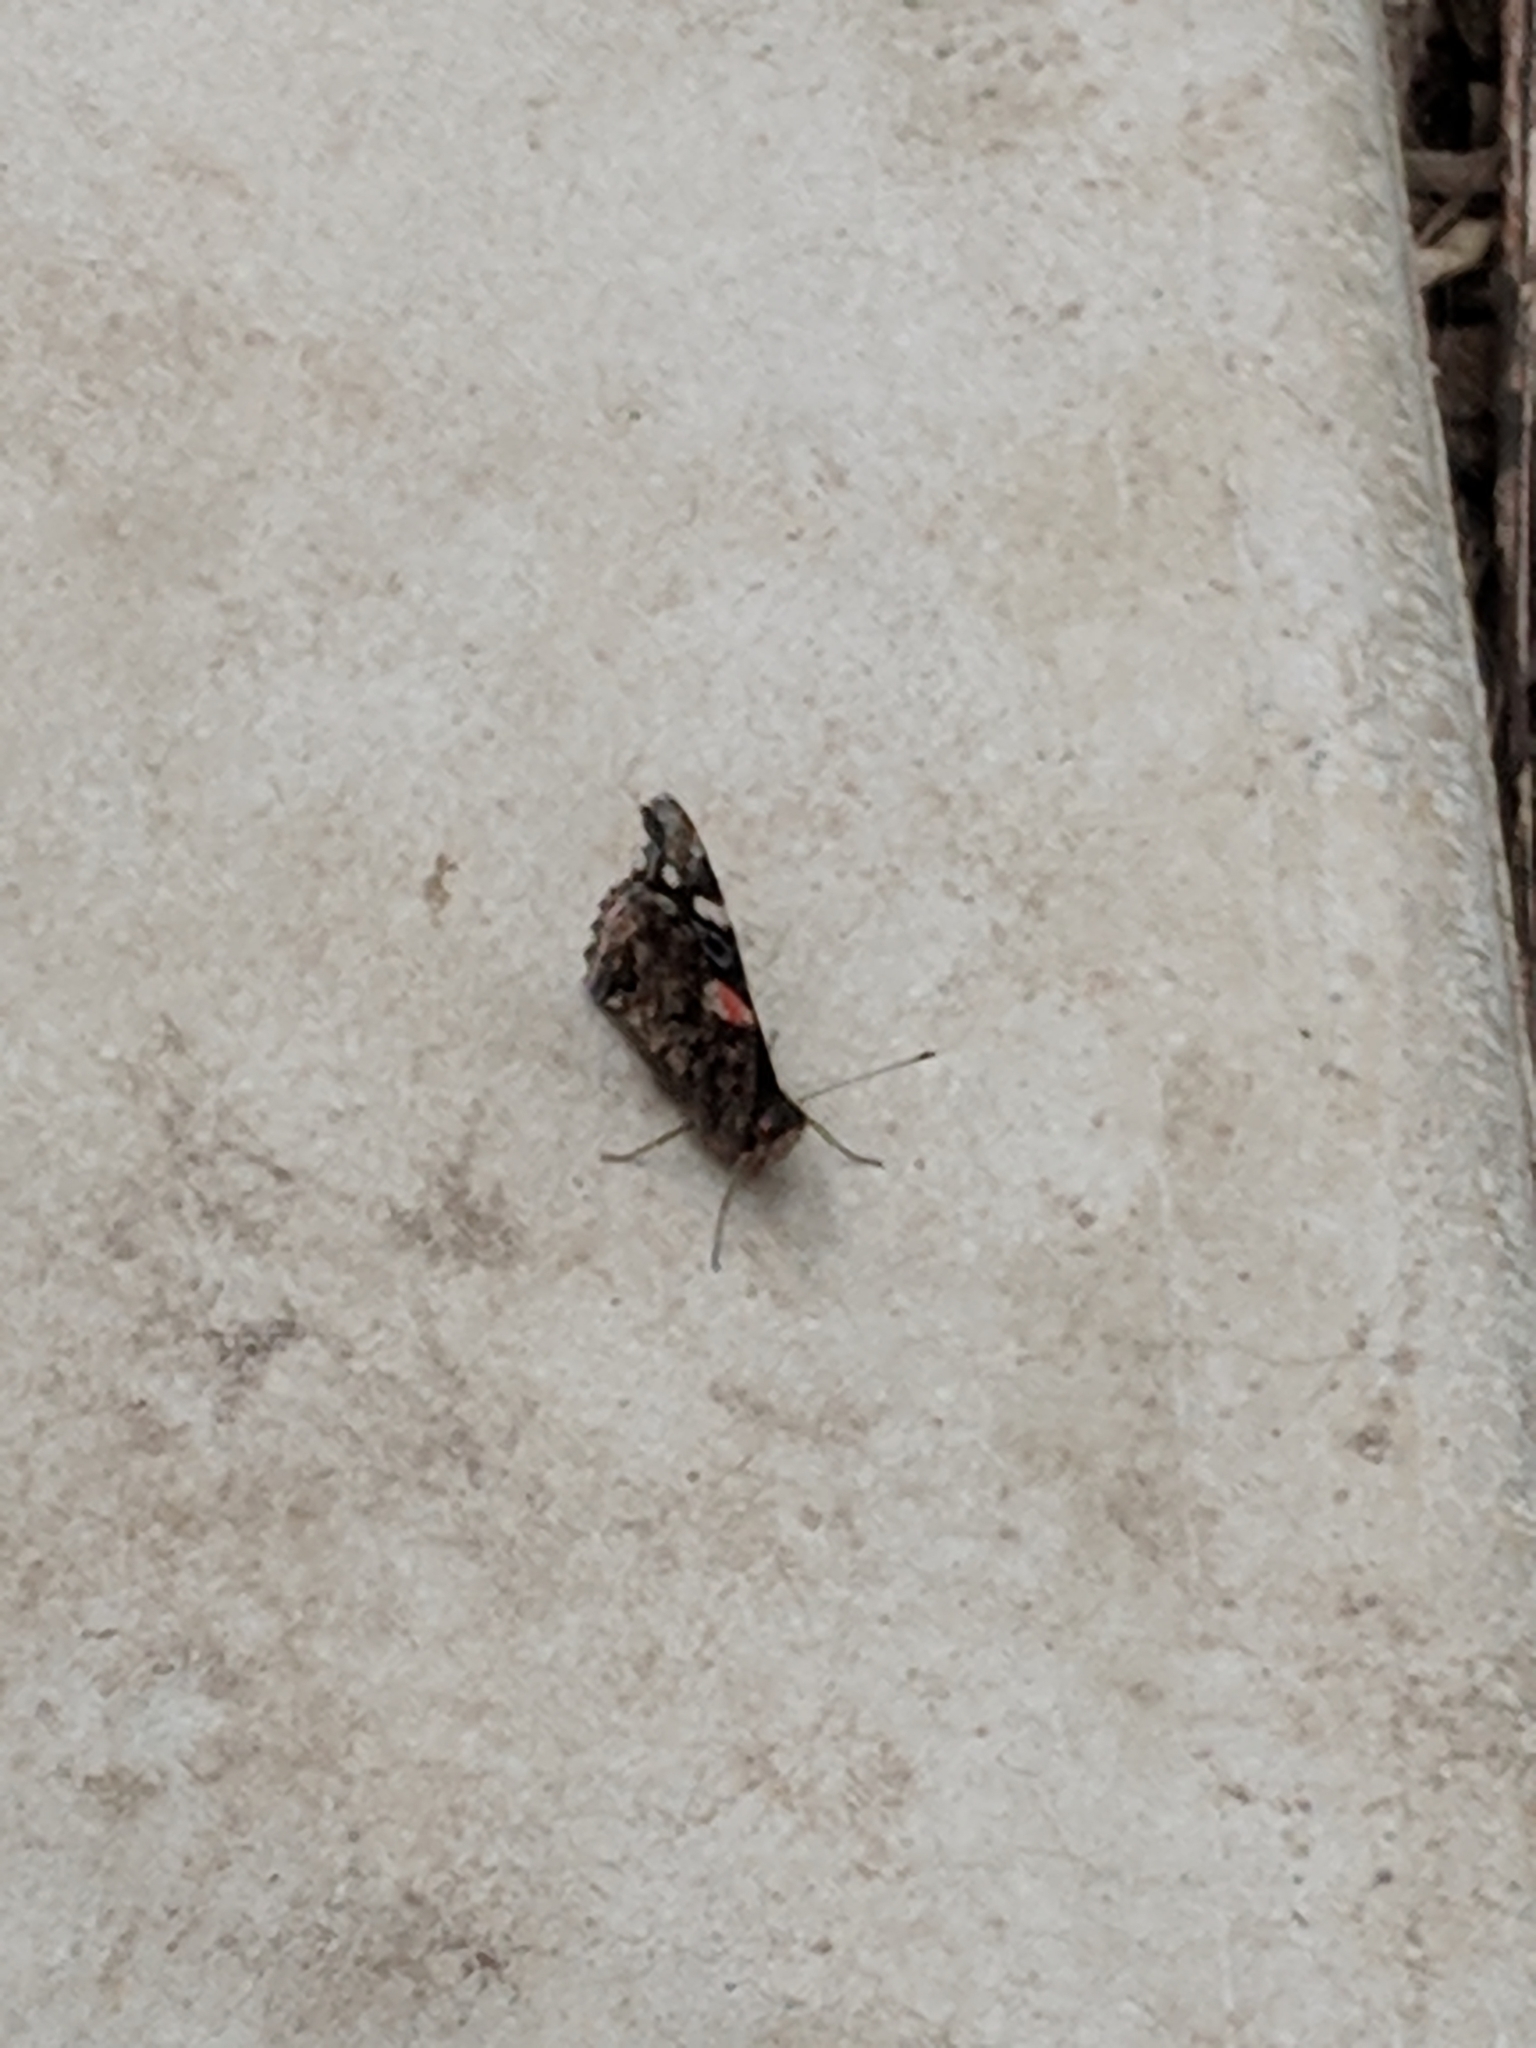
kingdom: Animalia
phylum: Arthropoda
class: Insecta
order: Lepidoptera
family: Nymphalidae
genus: Vanessa
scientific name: Vanessa atalanta
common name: Red admiral
